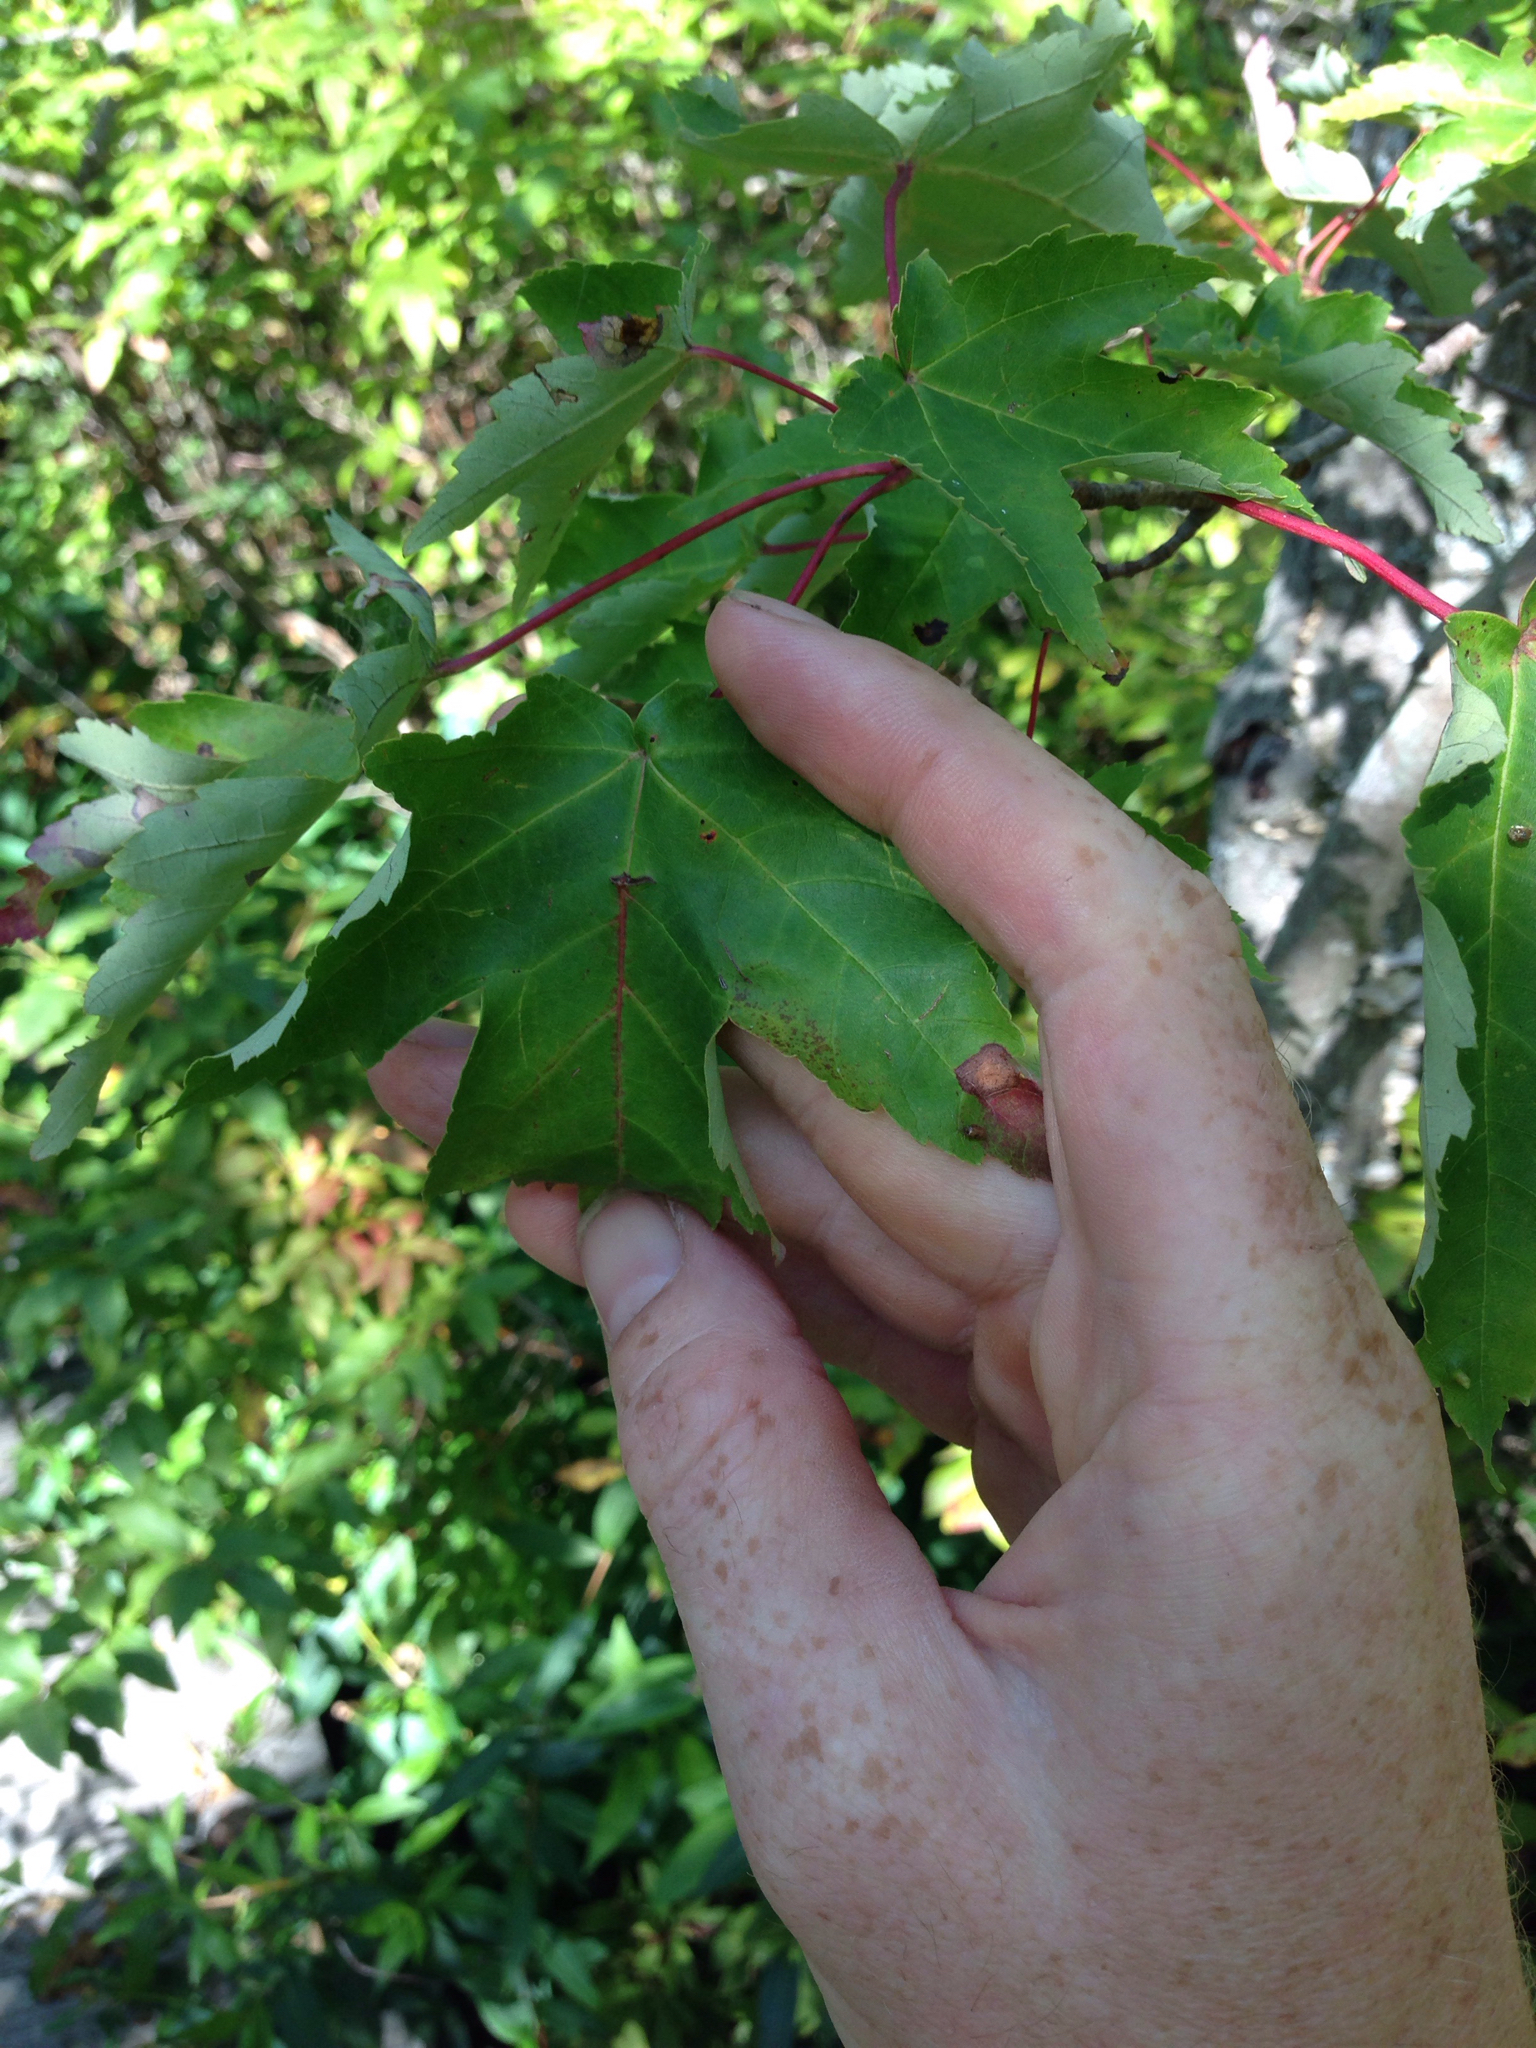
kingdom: Plantae
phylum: Tracheophyta
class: Magnoliopsida
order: Sapindales
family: Sapindaceae
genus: Acer
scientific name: Acer freemanii
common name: Freeman maple
